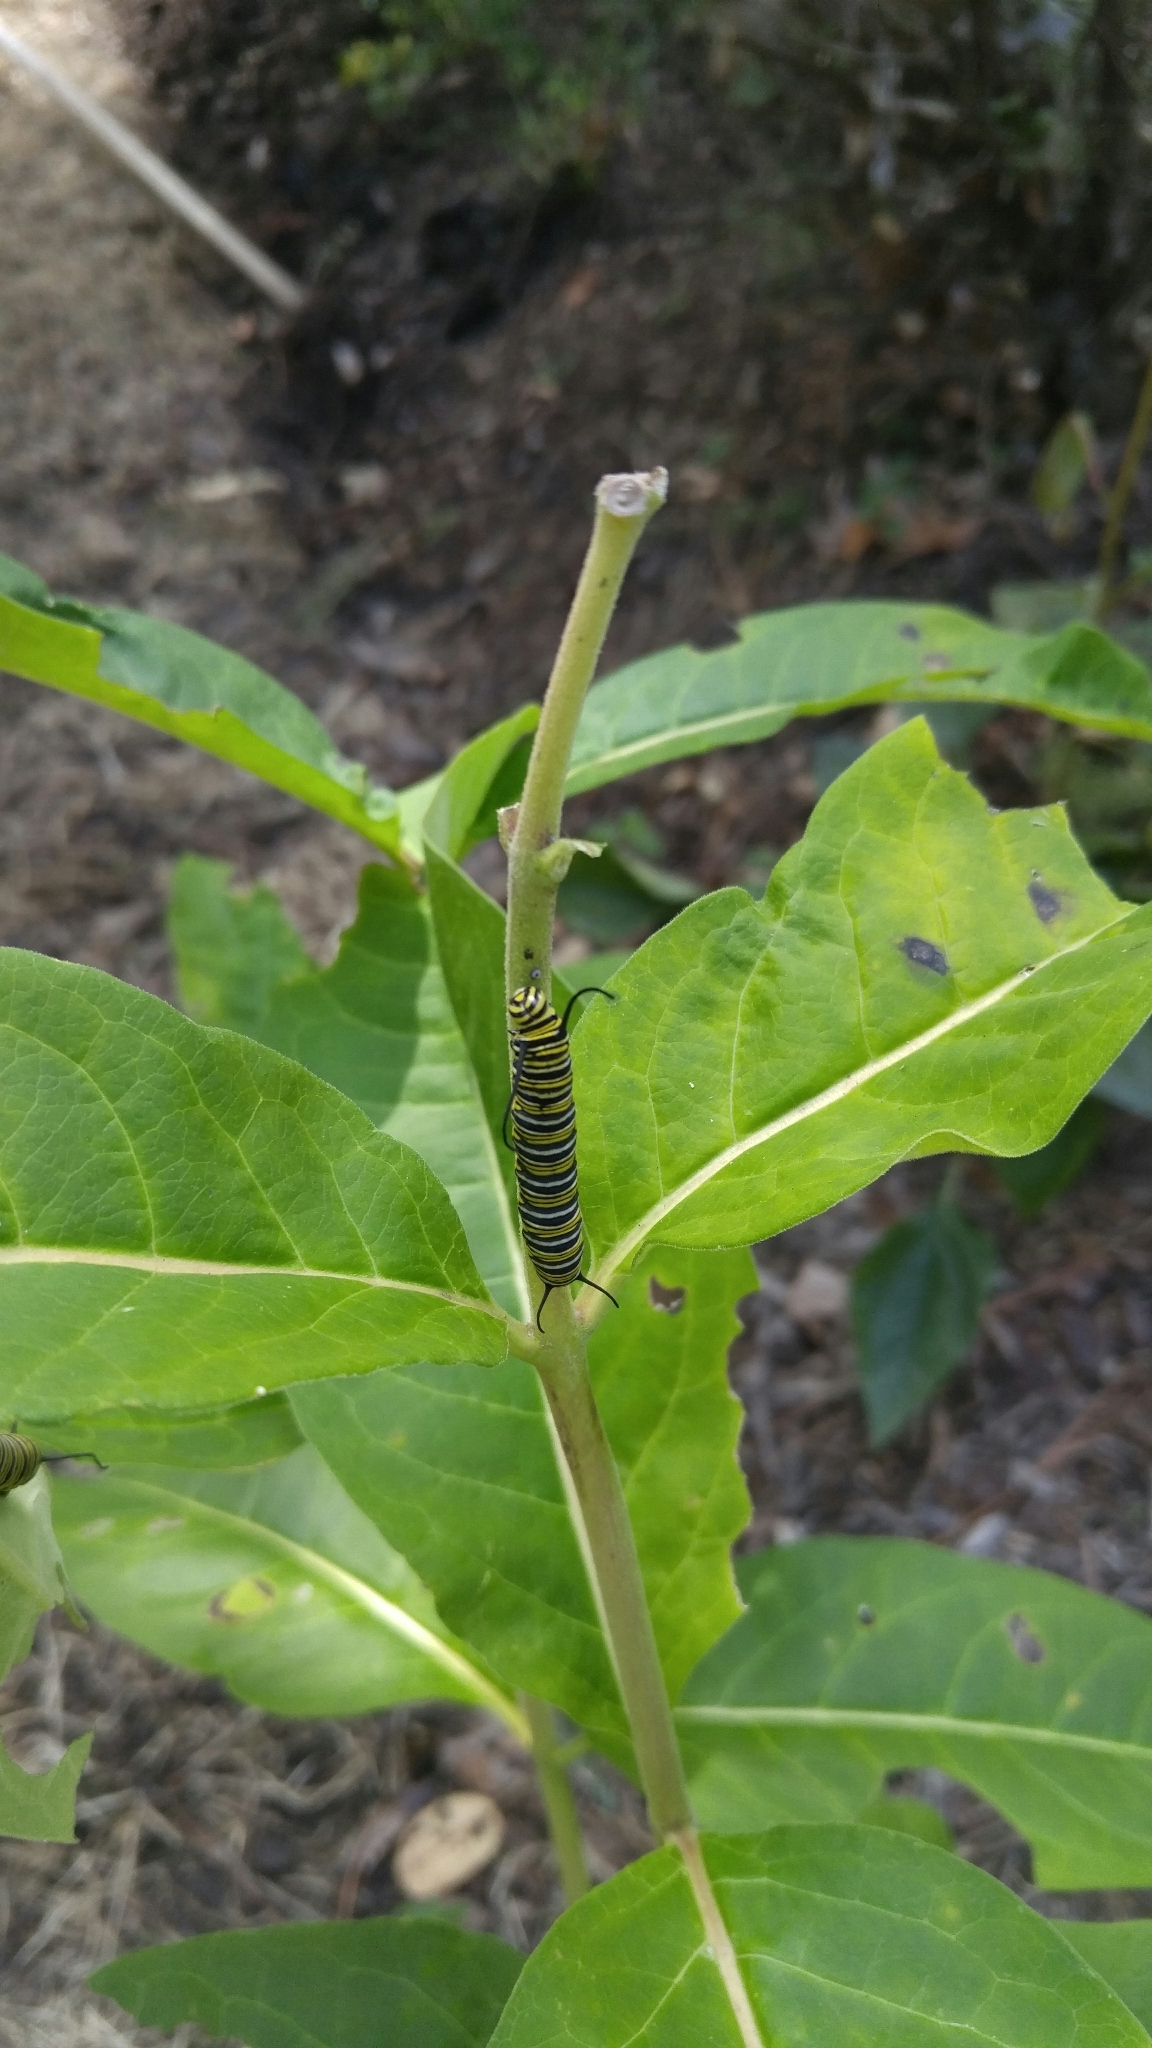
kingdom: Animalia
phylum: Arthropoda
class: Insecta
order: Lepidoptera
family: Nymphalidae
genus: Danaus
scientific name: Danaus plexippus
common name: Monarch
